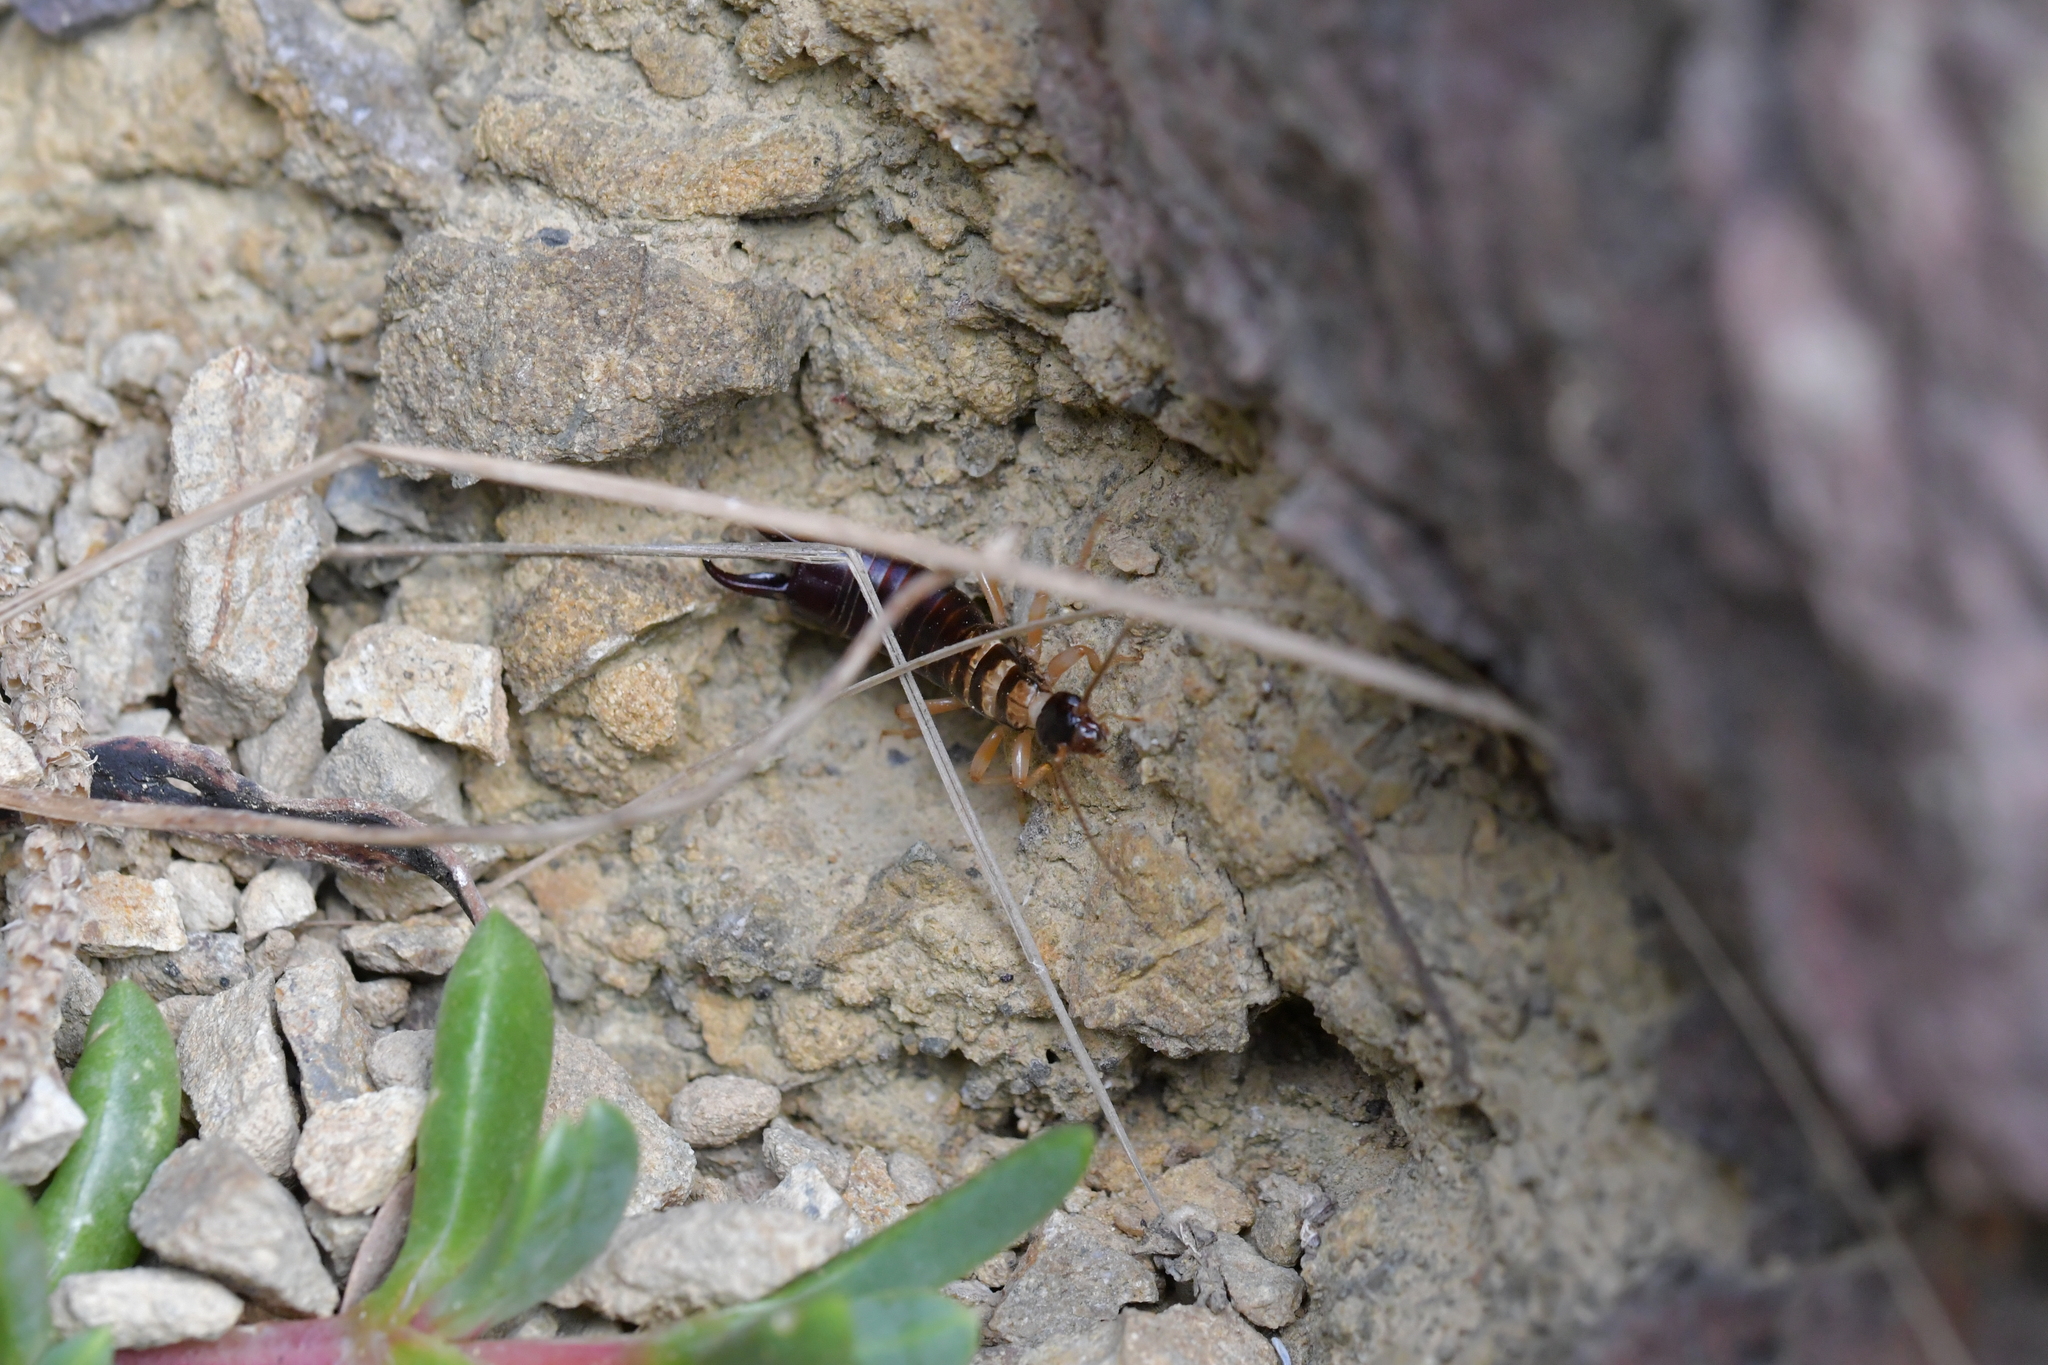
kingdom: Animalia
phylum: Arthropoda
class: Insecta
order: Dermaptera
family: Anisolabididae
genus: Anisolabis
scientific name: Anisolabis littorea
